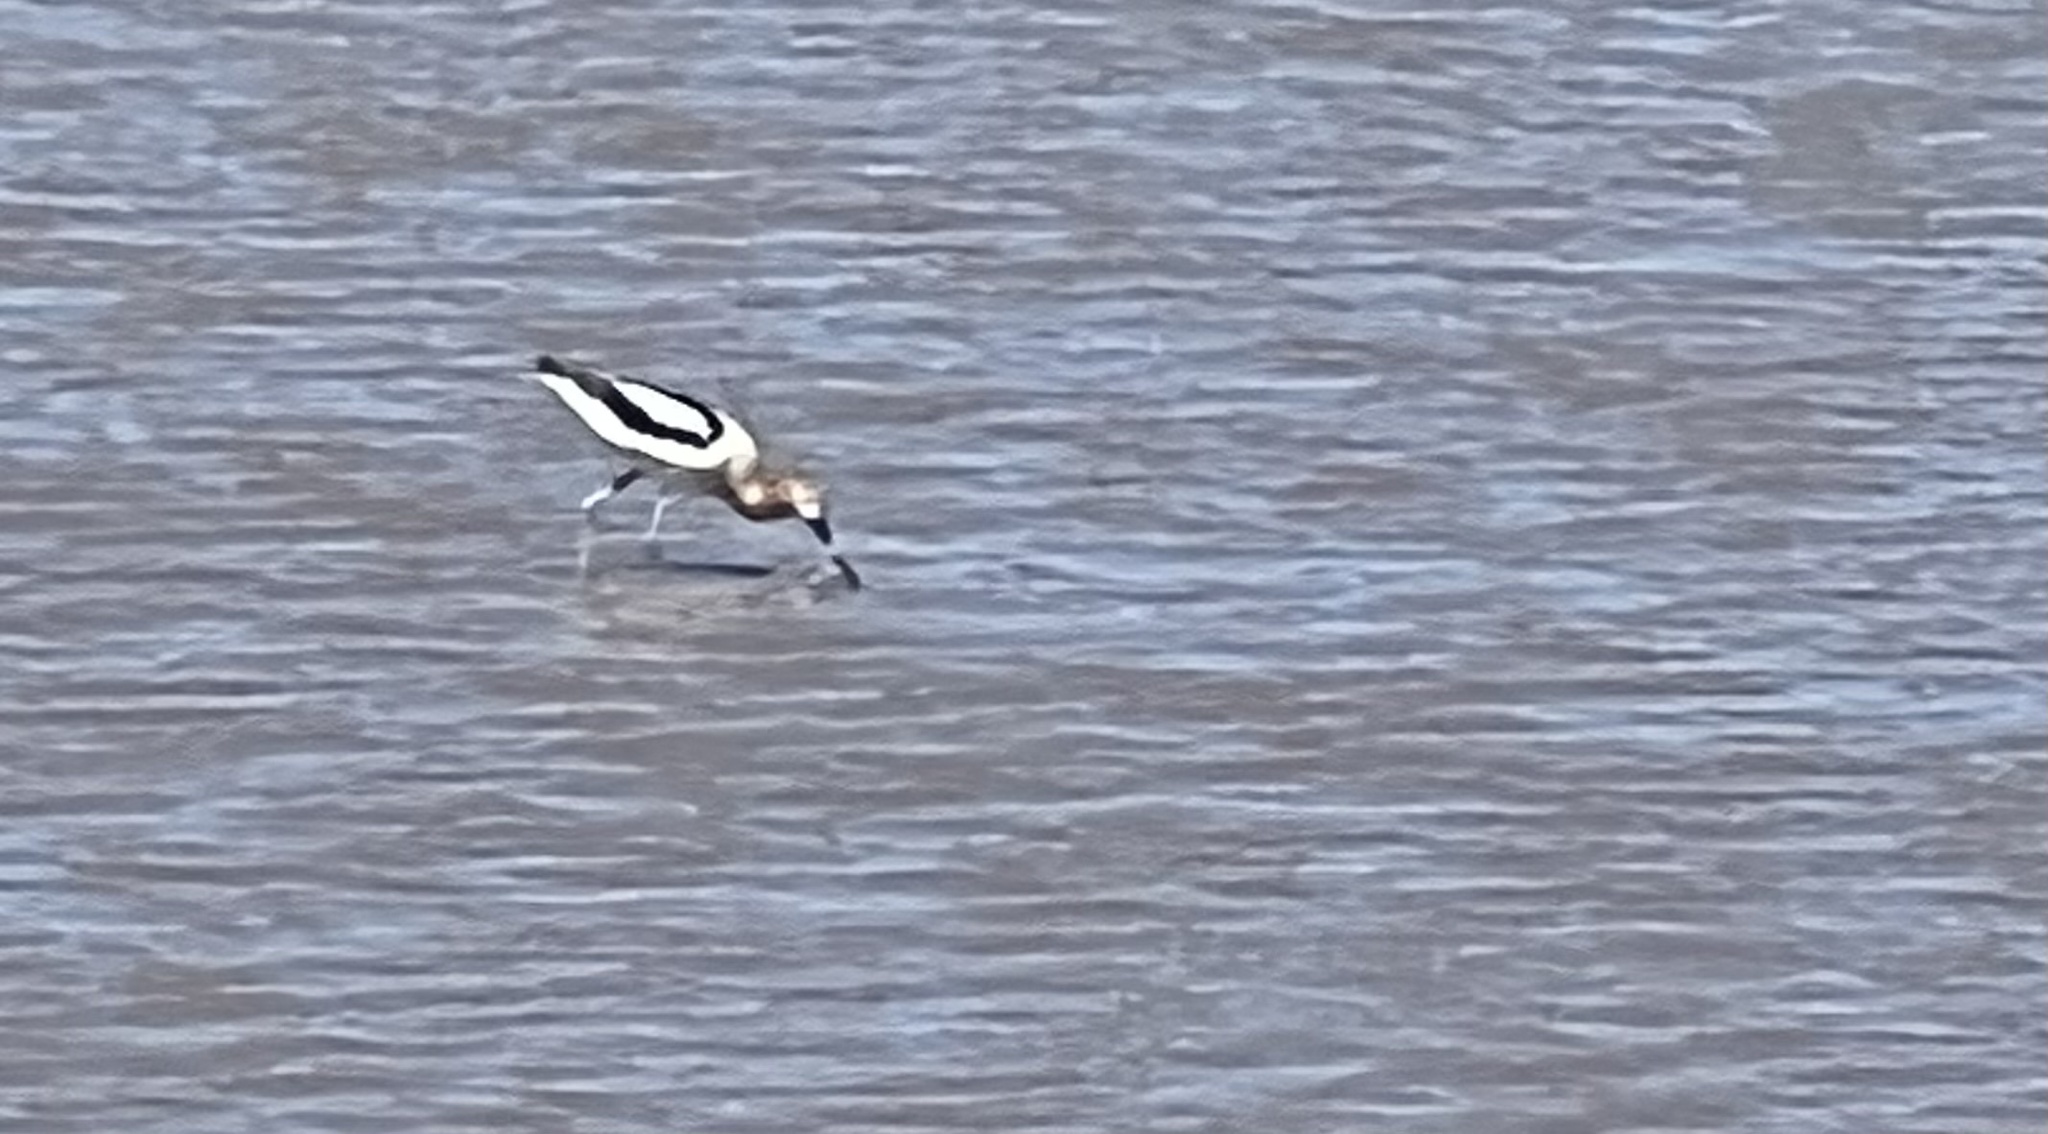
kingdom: Animalia
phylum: Chordata
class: Aves
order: Charadriiformes
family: Recurvirostridae
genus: Recurvirostra
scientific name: Recurvirostra americana
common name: American avocet
